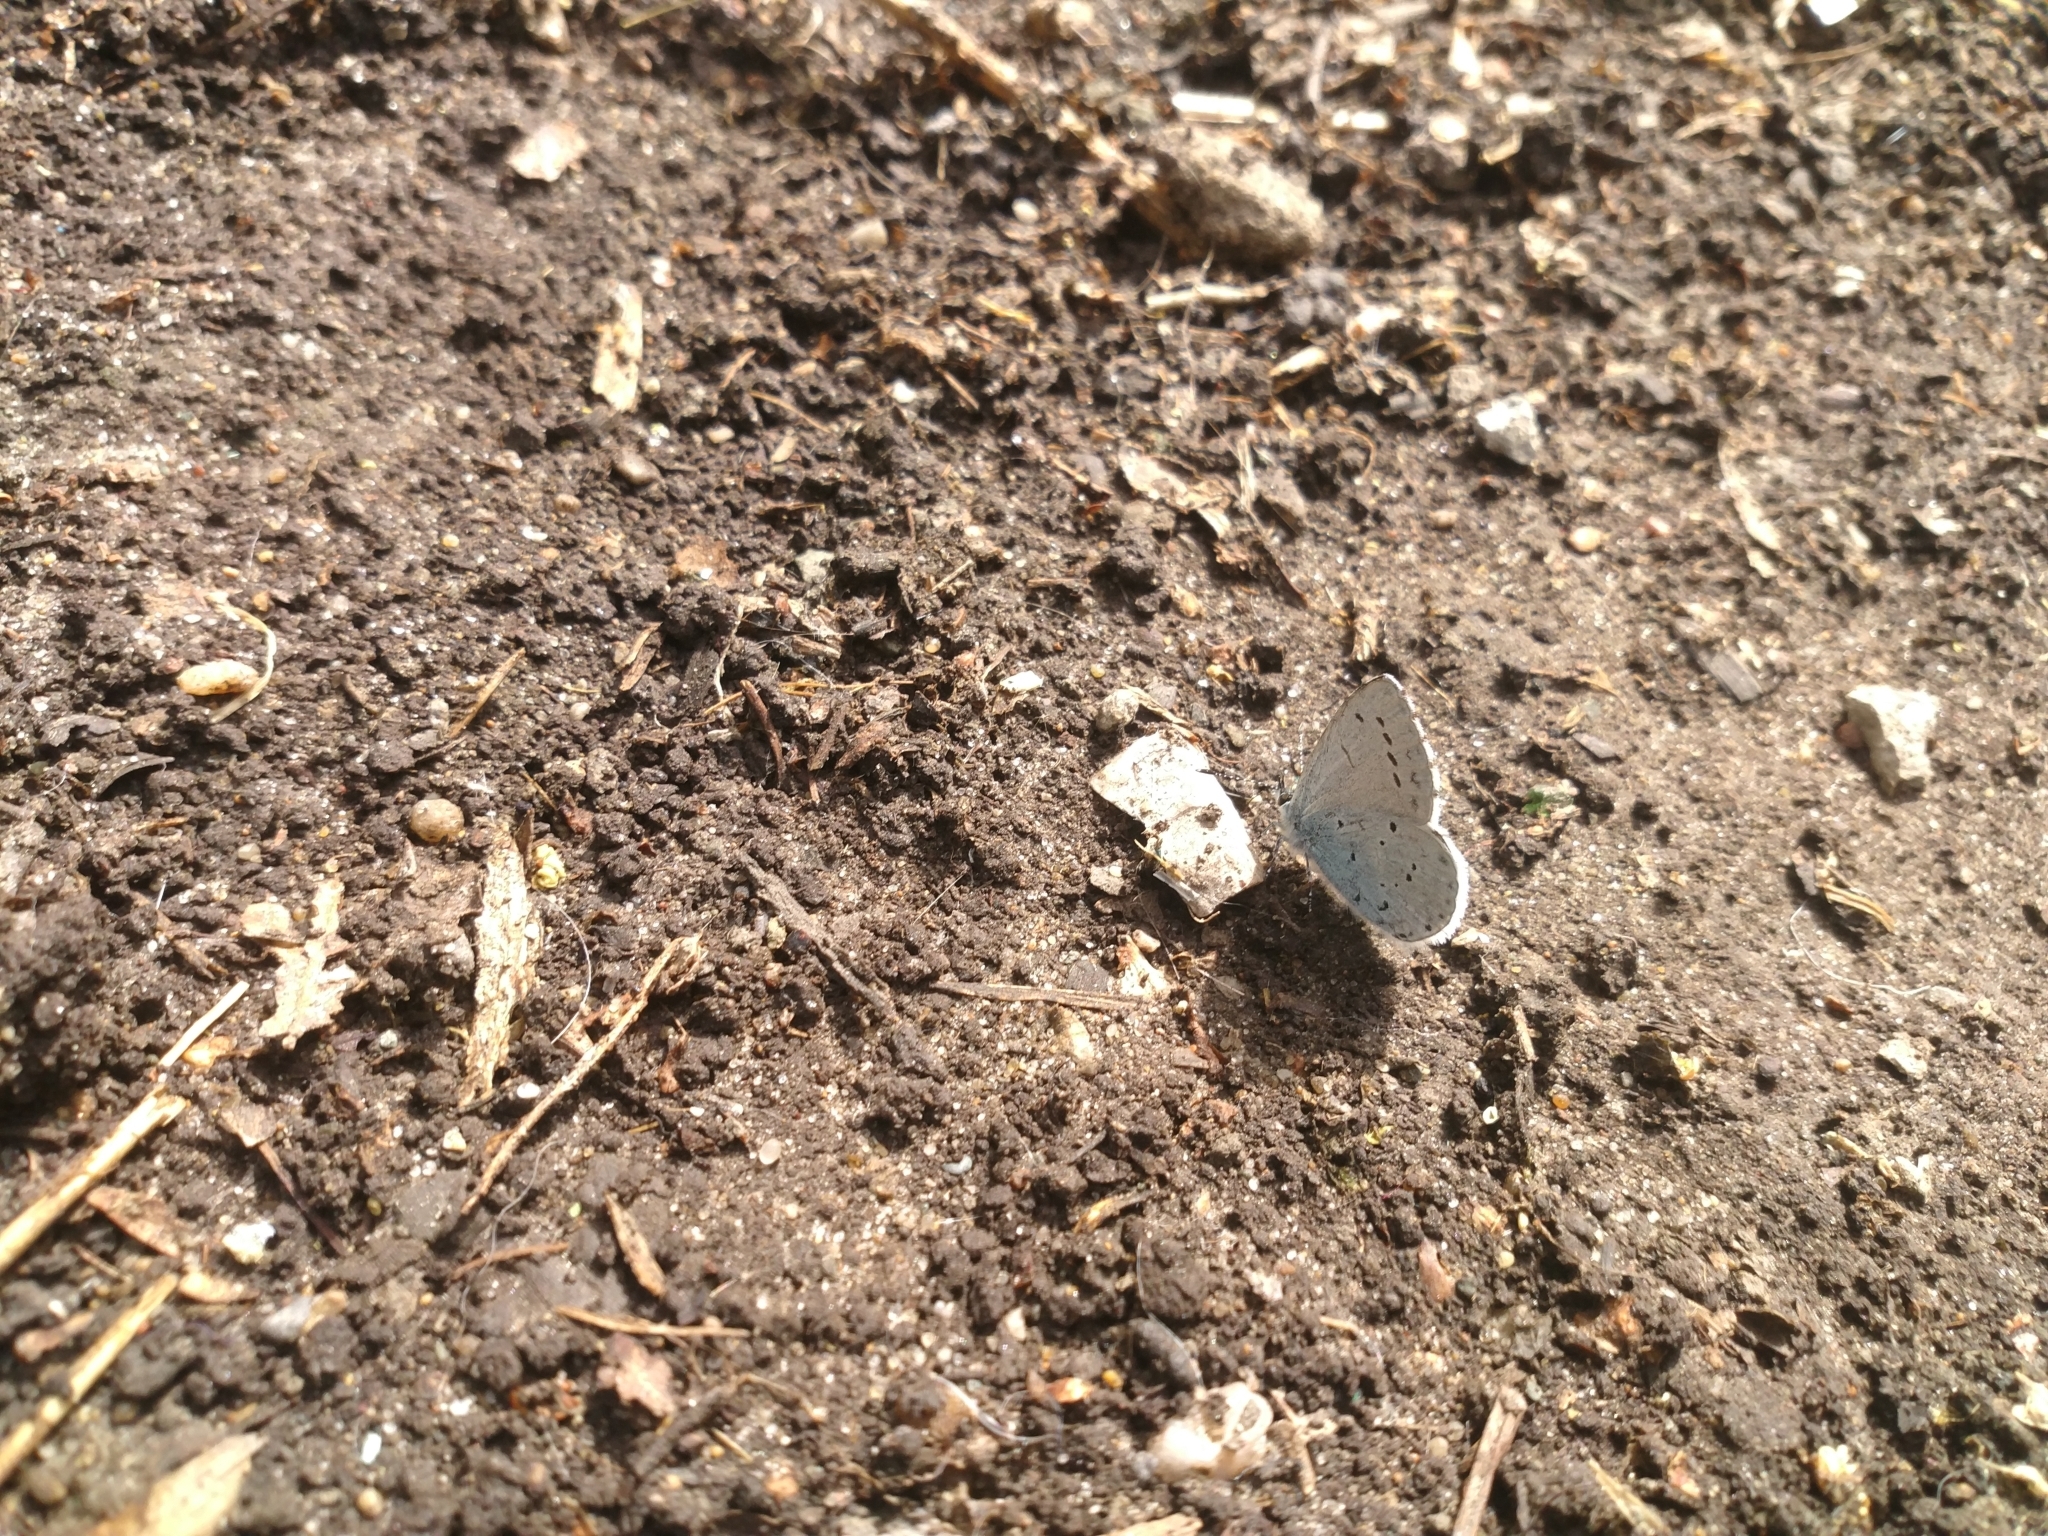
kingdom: Animalia
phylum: Arthropoda
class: Insecta
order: Lepidoptera
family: Lycaenidae
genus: Celastrina
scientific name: Celastrina argiolus
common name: Holly blue
